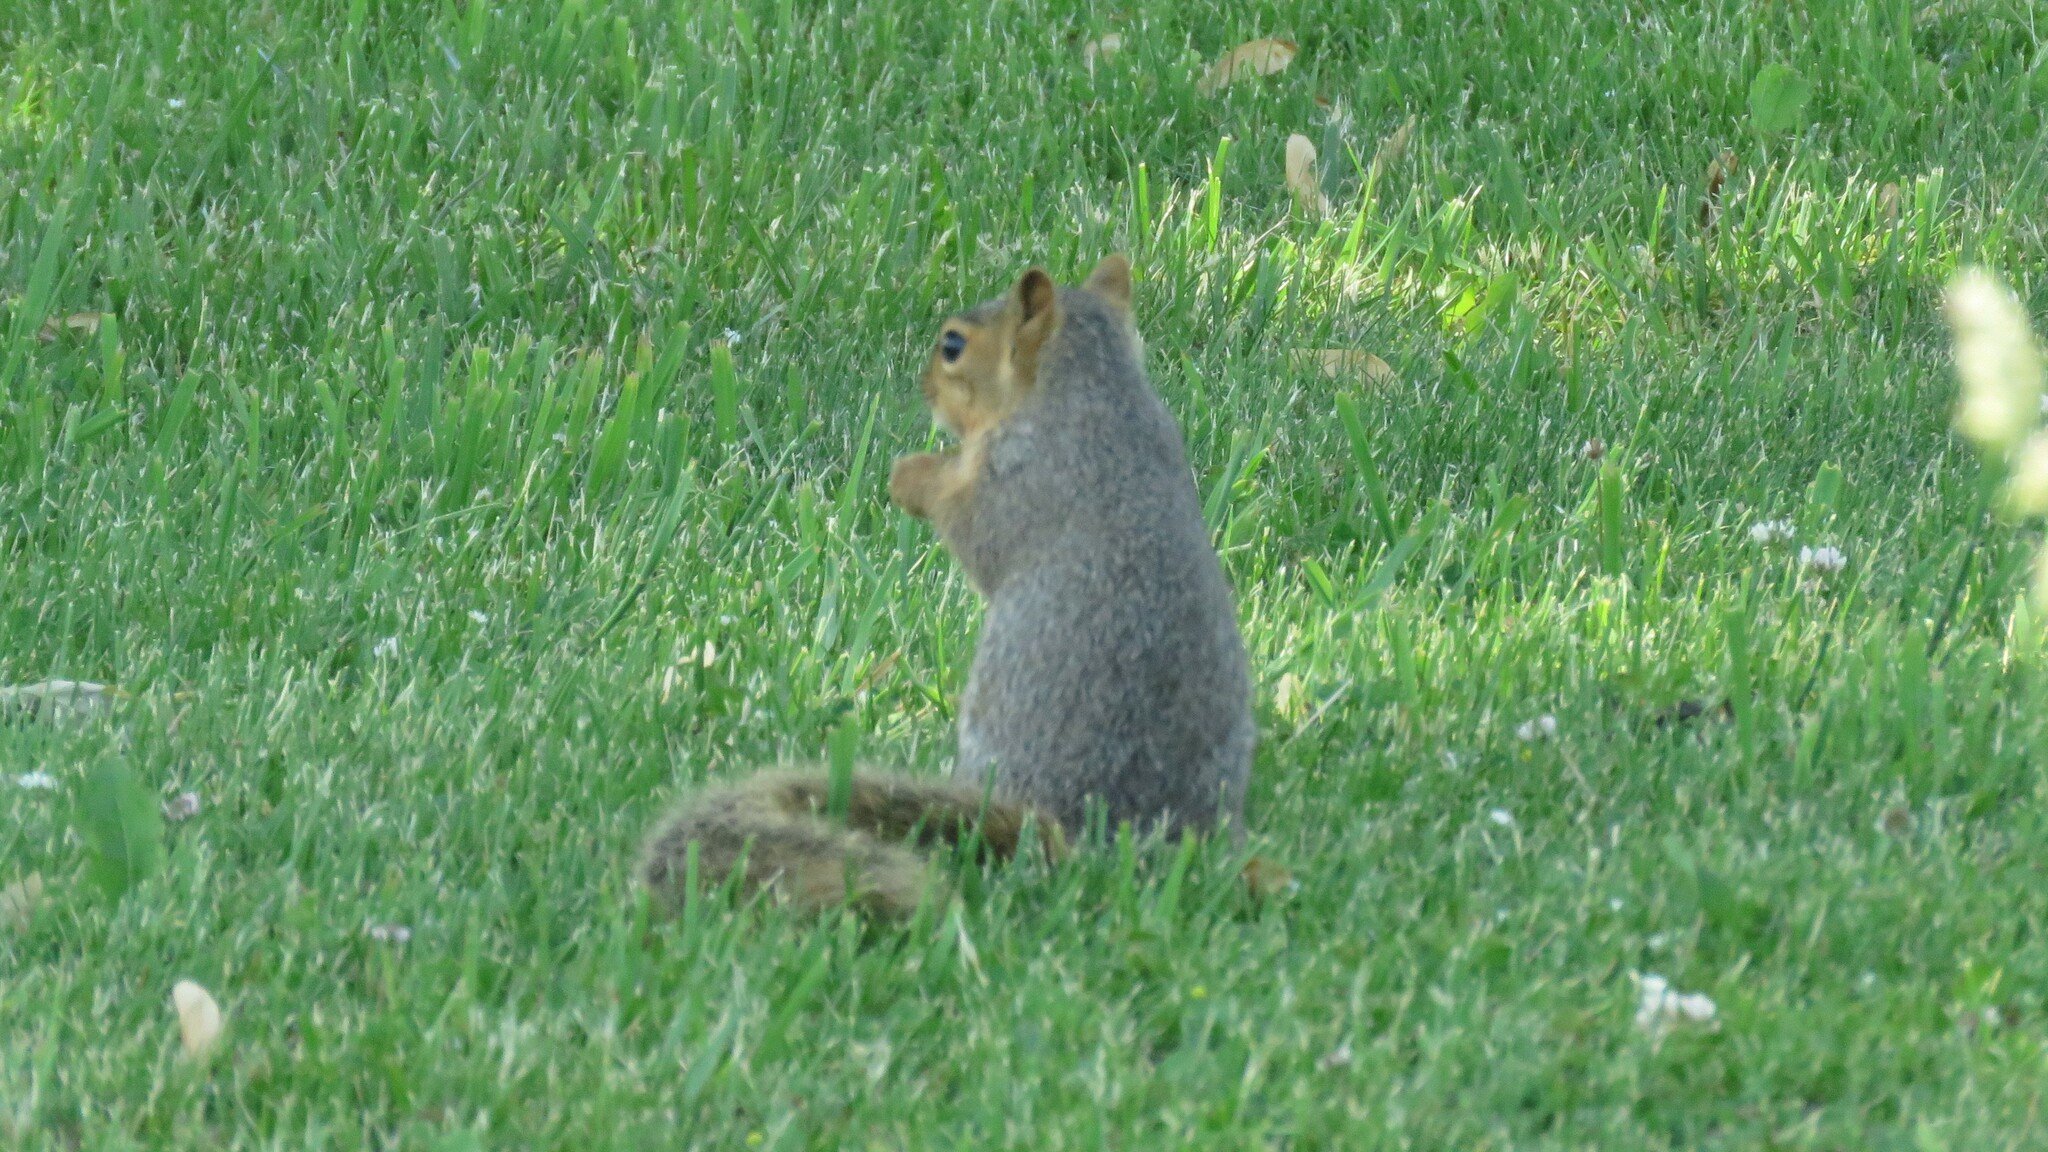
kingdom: Animalia
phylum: Chordata
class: Mammalia
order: Rodentia
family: Sciuridae
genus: Sciurus
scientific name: Sciurus niger
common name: Fox squirrel
